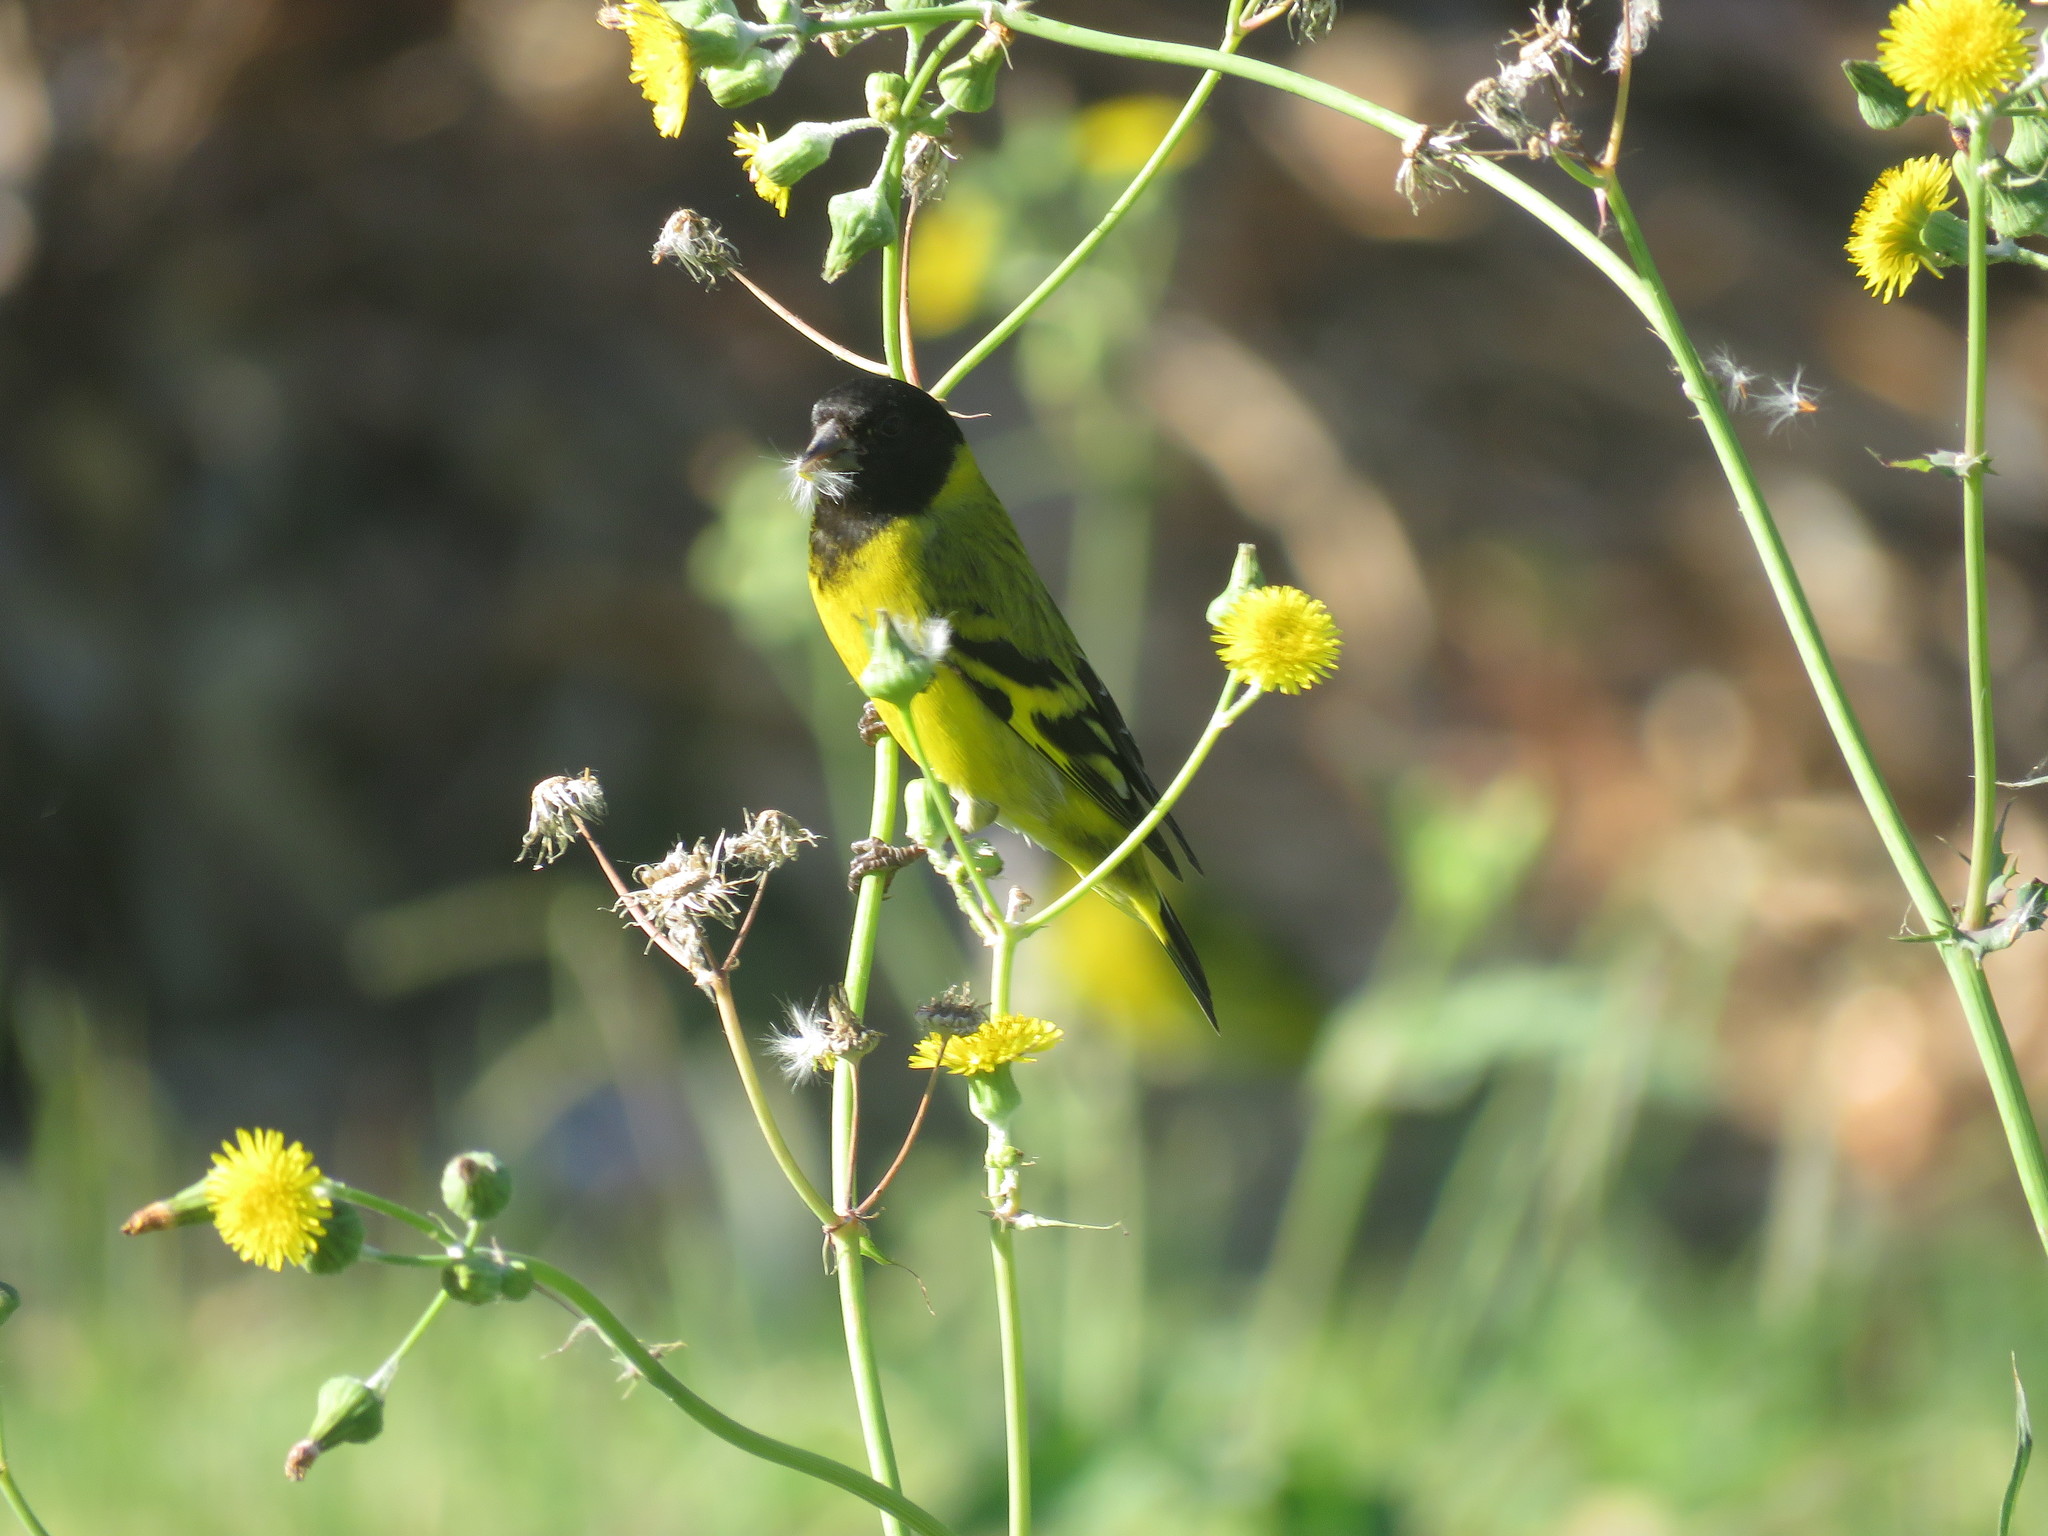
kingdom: Animalia
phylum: Chordata
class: Aves
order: Passeriformes
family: Fringillidae
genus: Spinus
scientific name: Spinus magellanicus
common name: Hooded siskin
